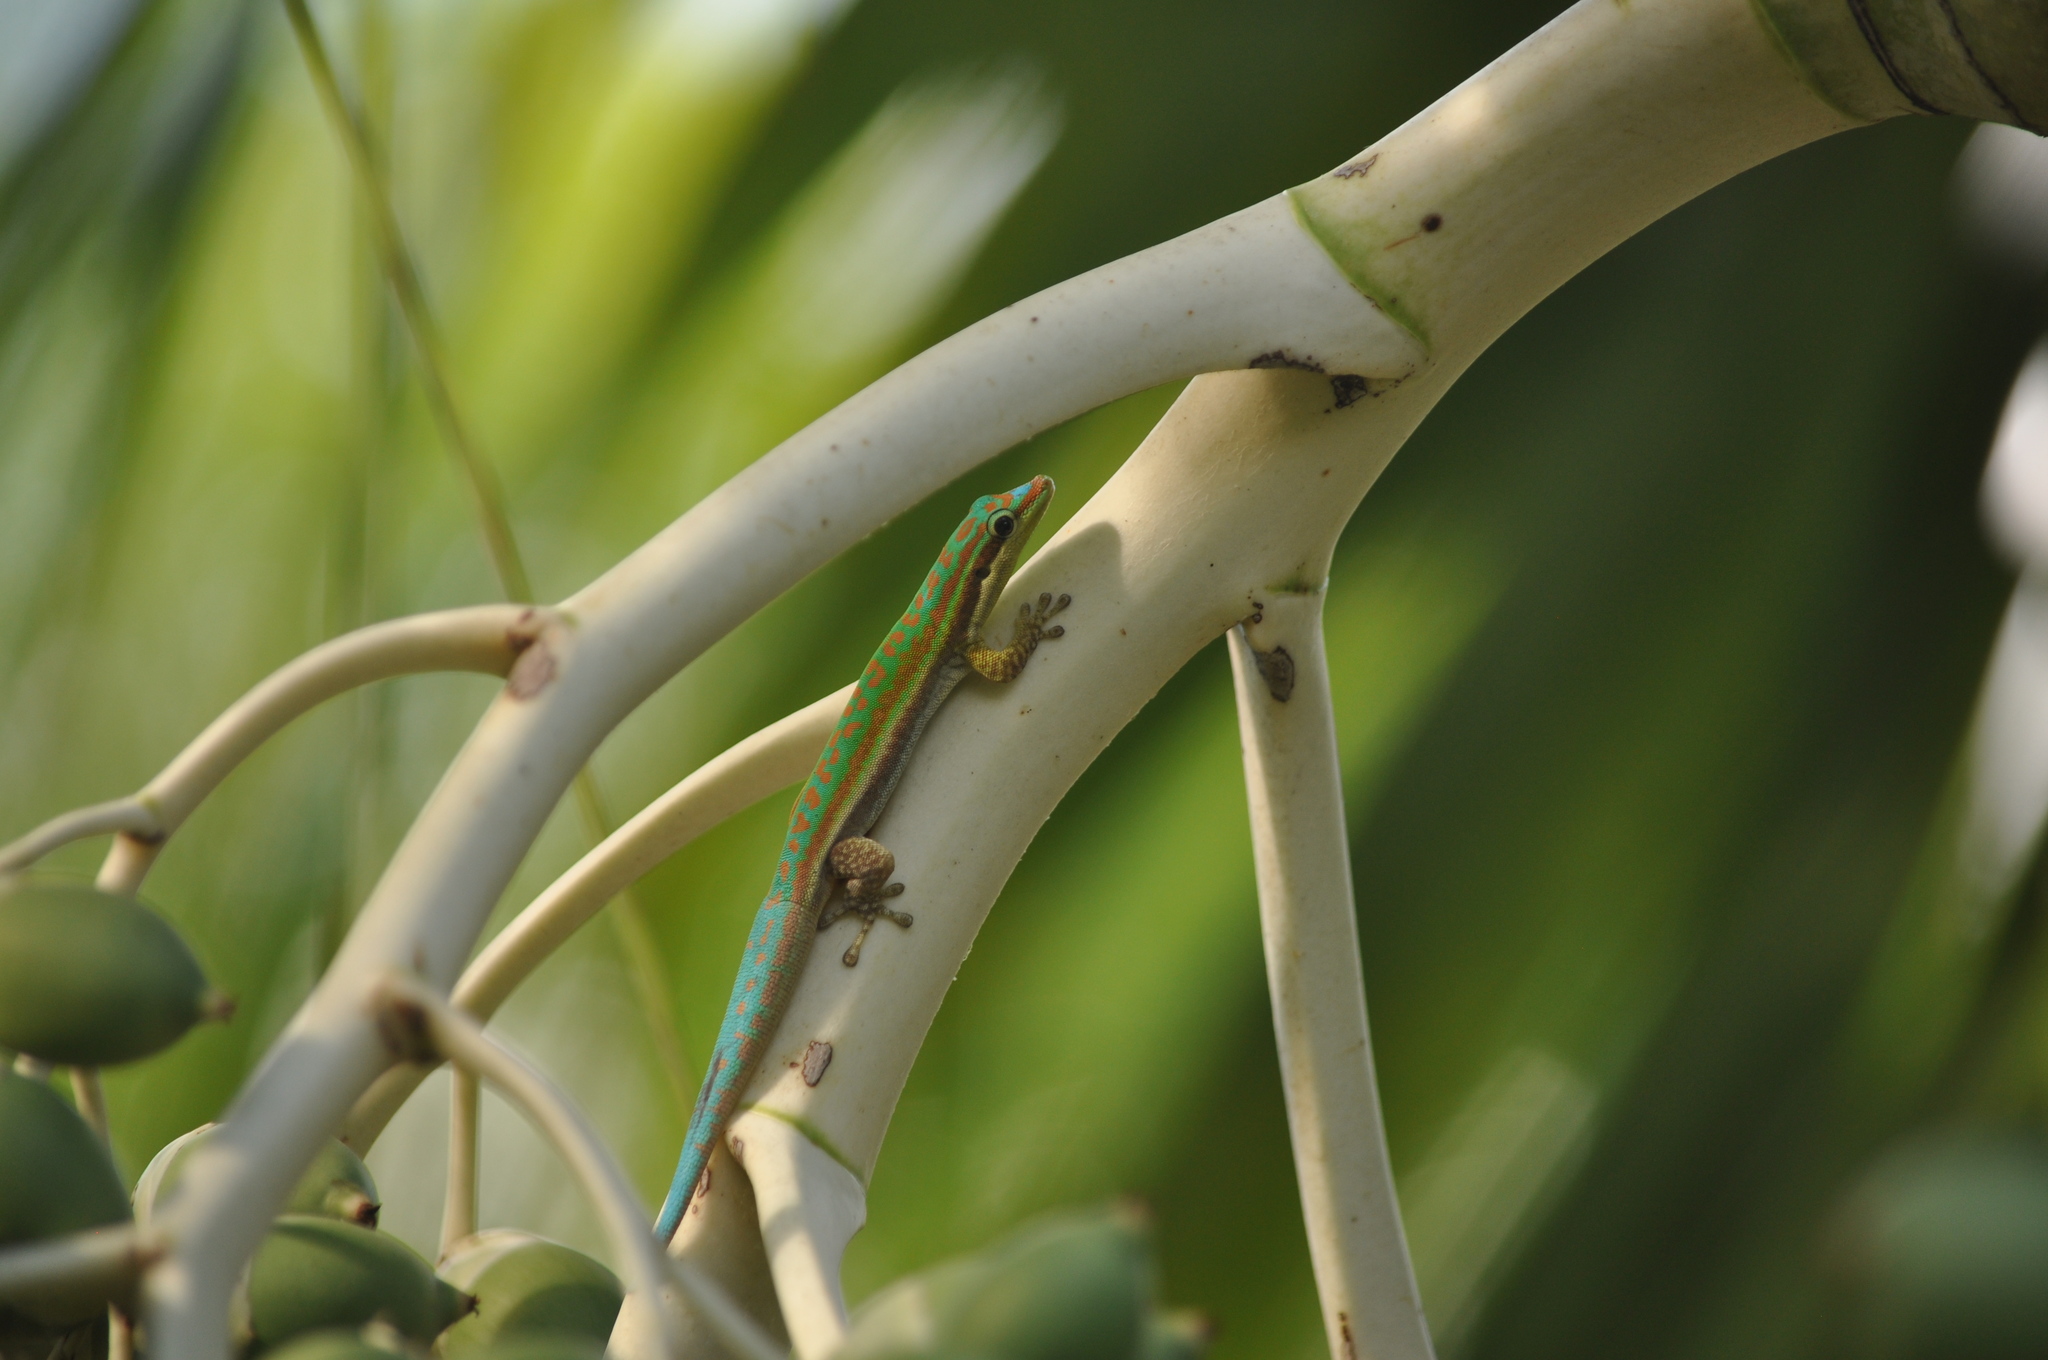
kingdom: Animalia
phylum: Chordata
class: Squamata
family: Gekkonidae
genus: Phelsuma
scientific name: Phelsuma cepediana
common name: Bluetail day gecko
